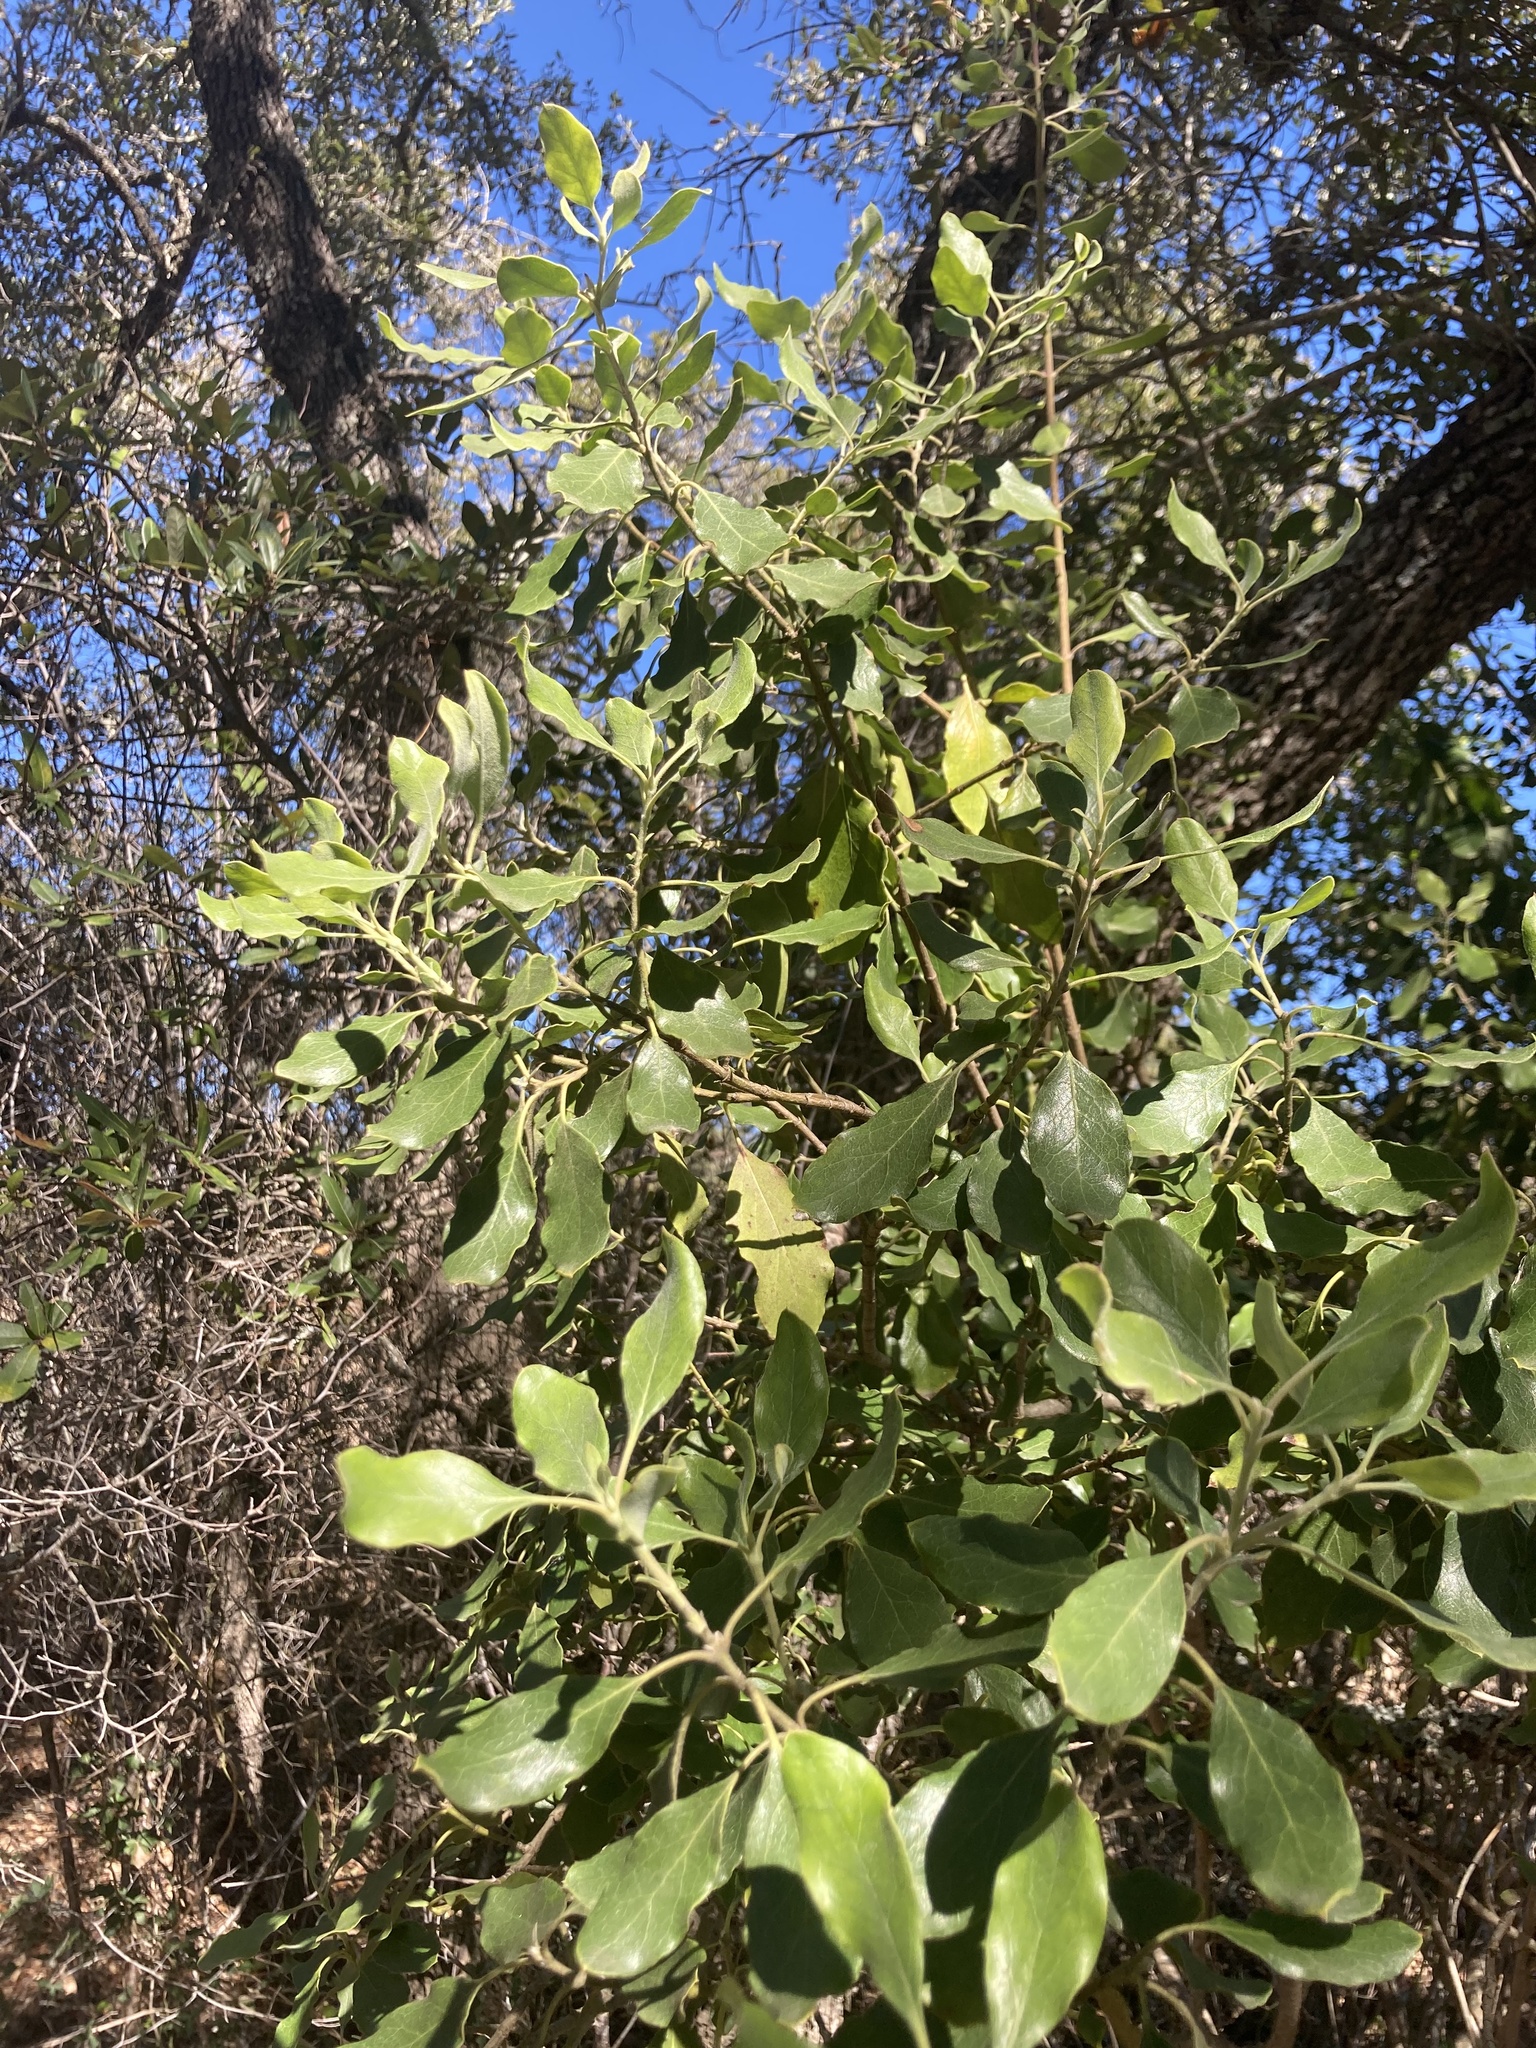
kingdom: Plantae
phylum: Tracheophyta
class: Magnoliopsida
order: Garryales
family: Garryaceae
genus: Garrya
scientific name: Garrya lindheimeri
